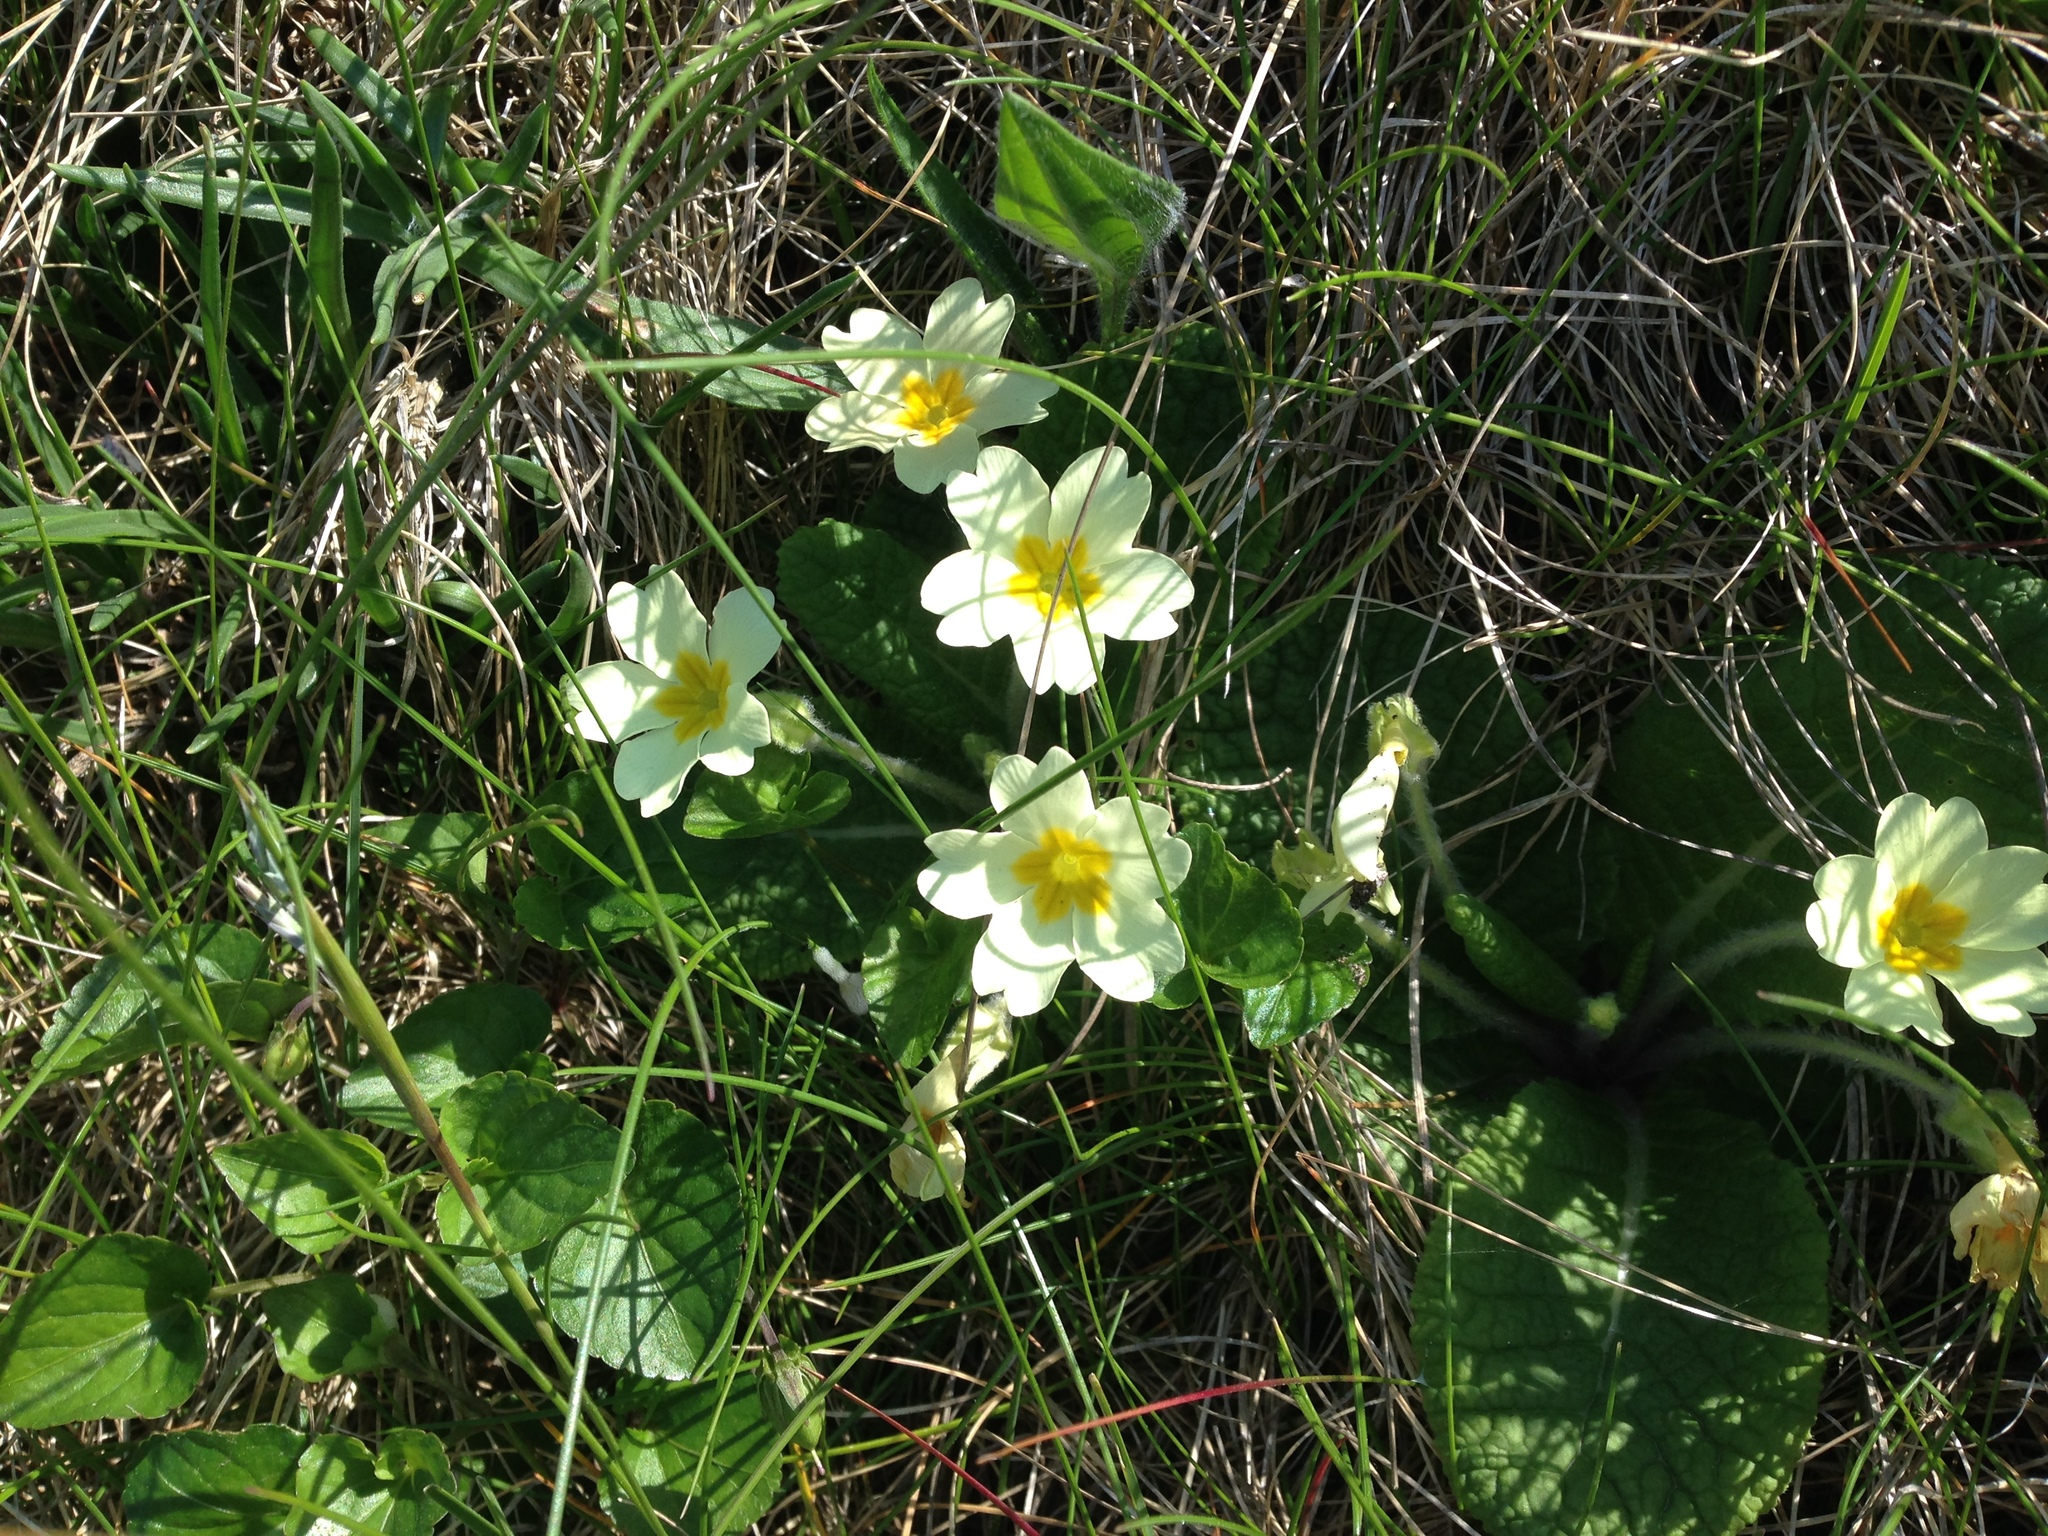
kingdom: Plantae
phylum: Tracheophyta
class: Magnoliopsida
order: Ericales
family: Primulaceae
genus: Primula
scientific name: Primula vulgaris
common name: Primrose
